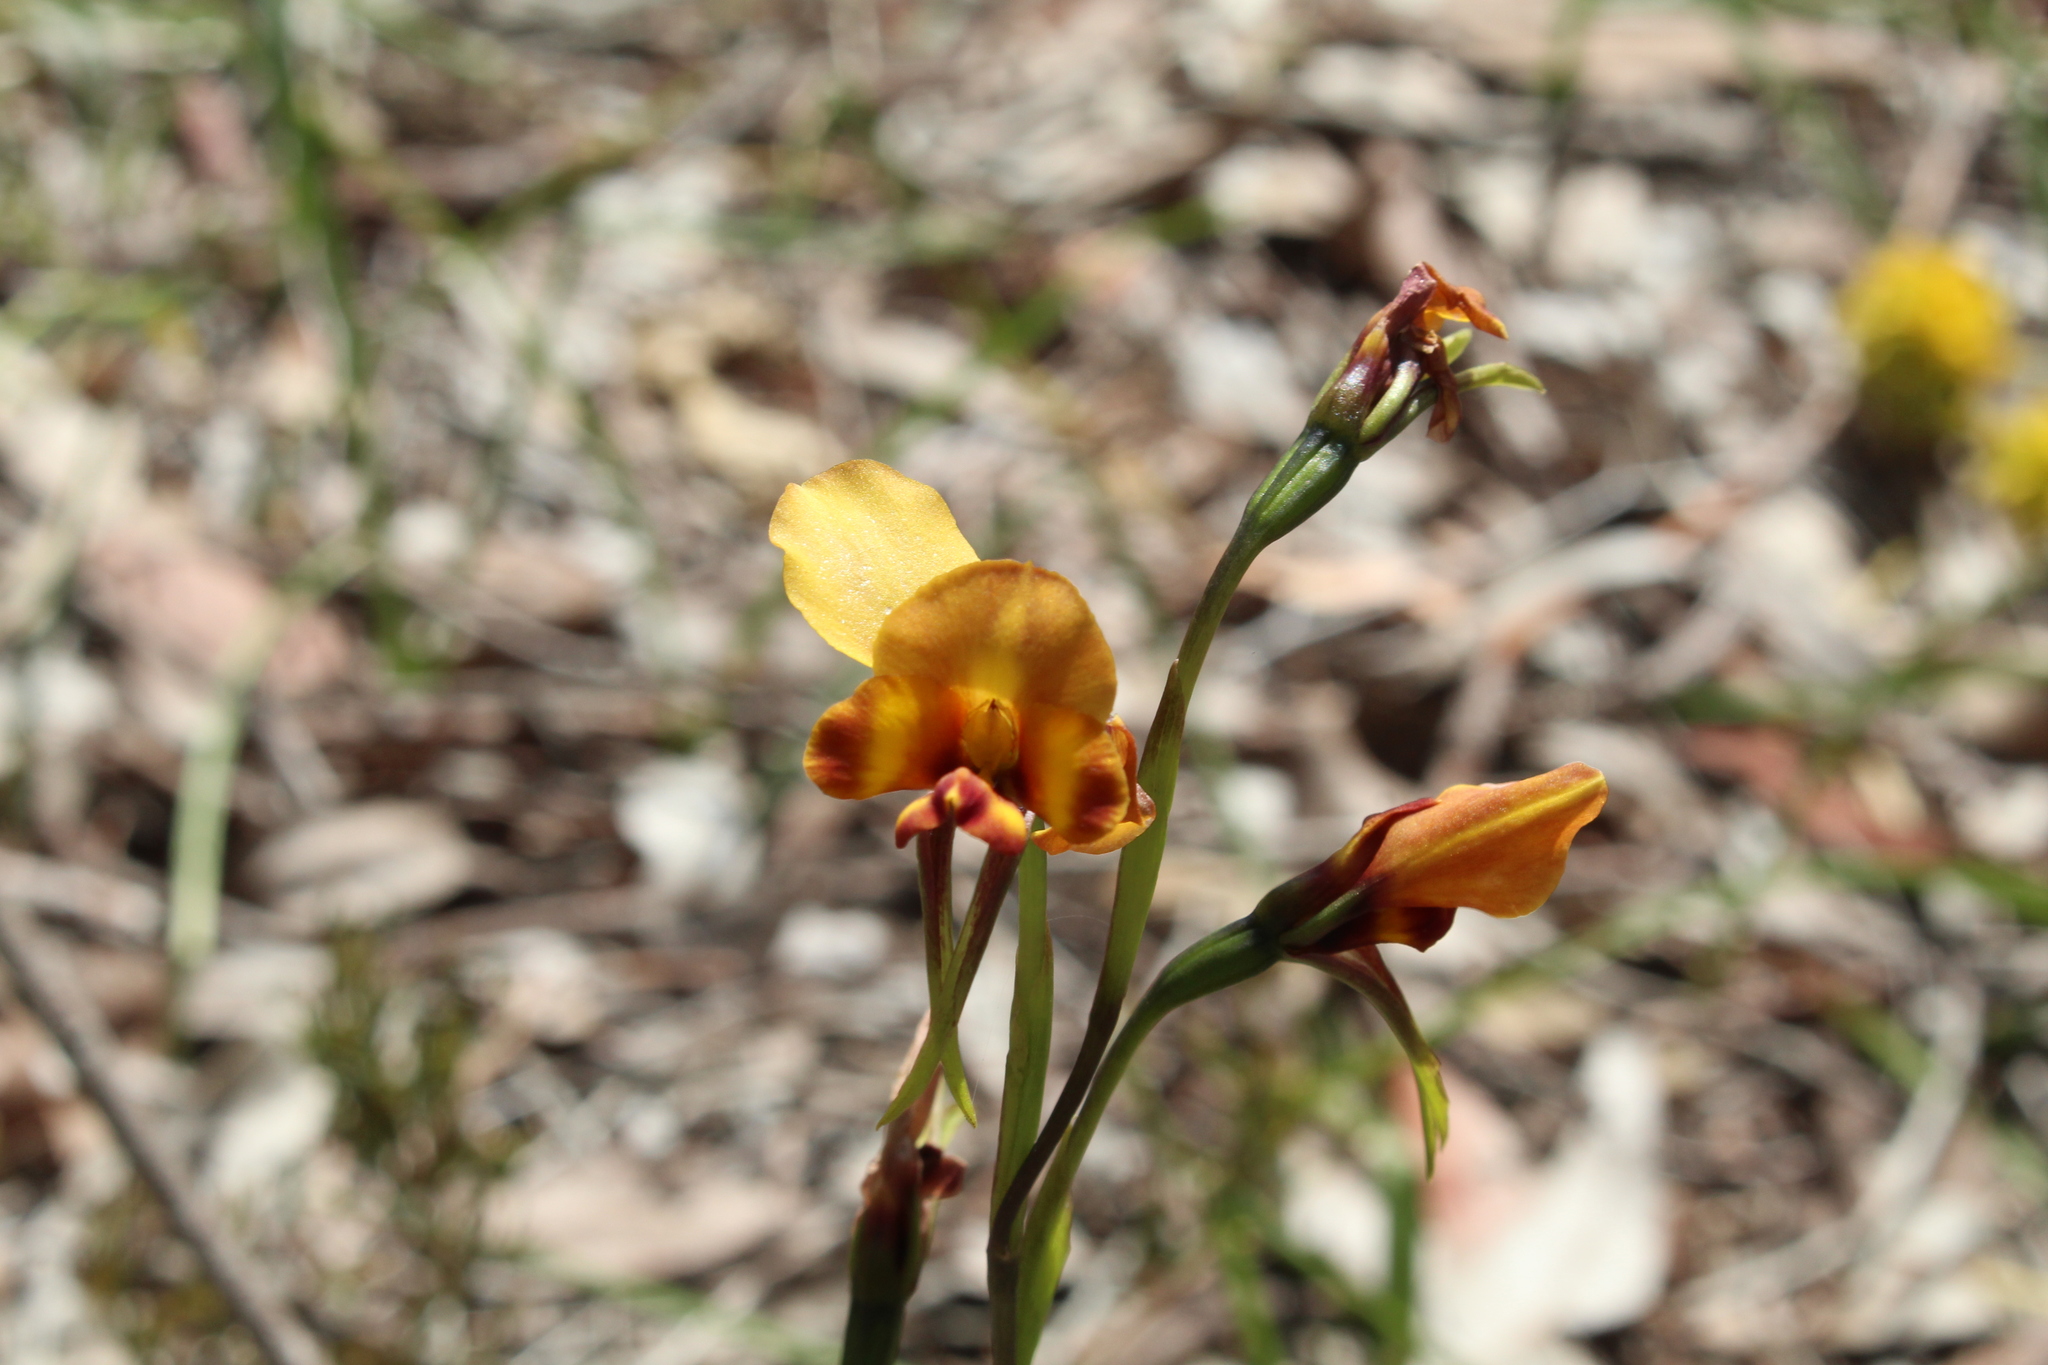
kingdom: Plantae
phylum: Tracheophyta
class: Liliopsida
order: Asparagales
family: Orchidaceae
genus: Diuris
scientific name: Diuris corymbosa
